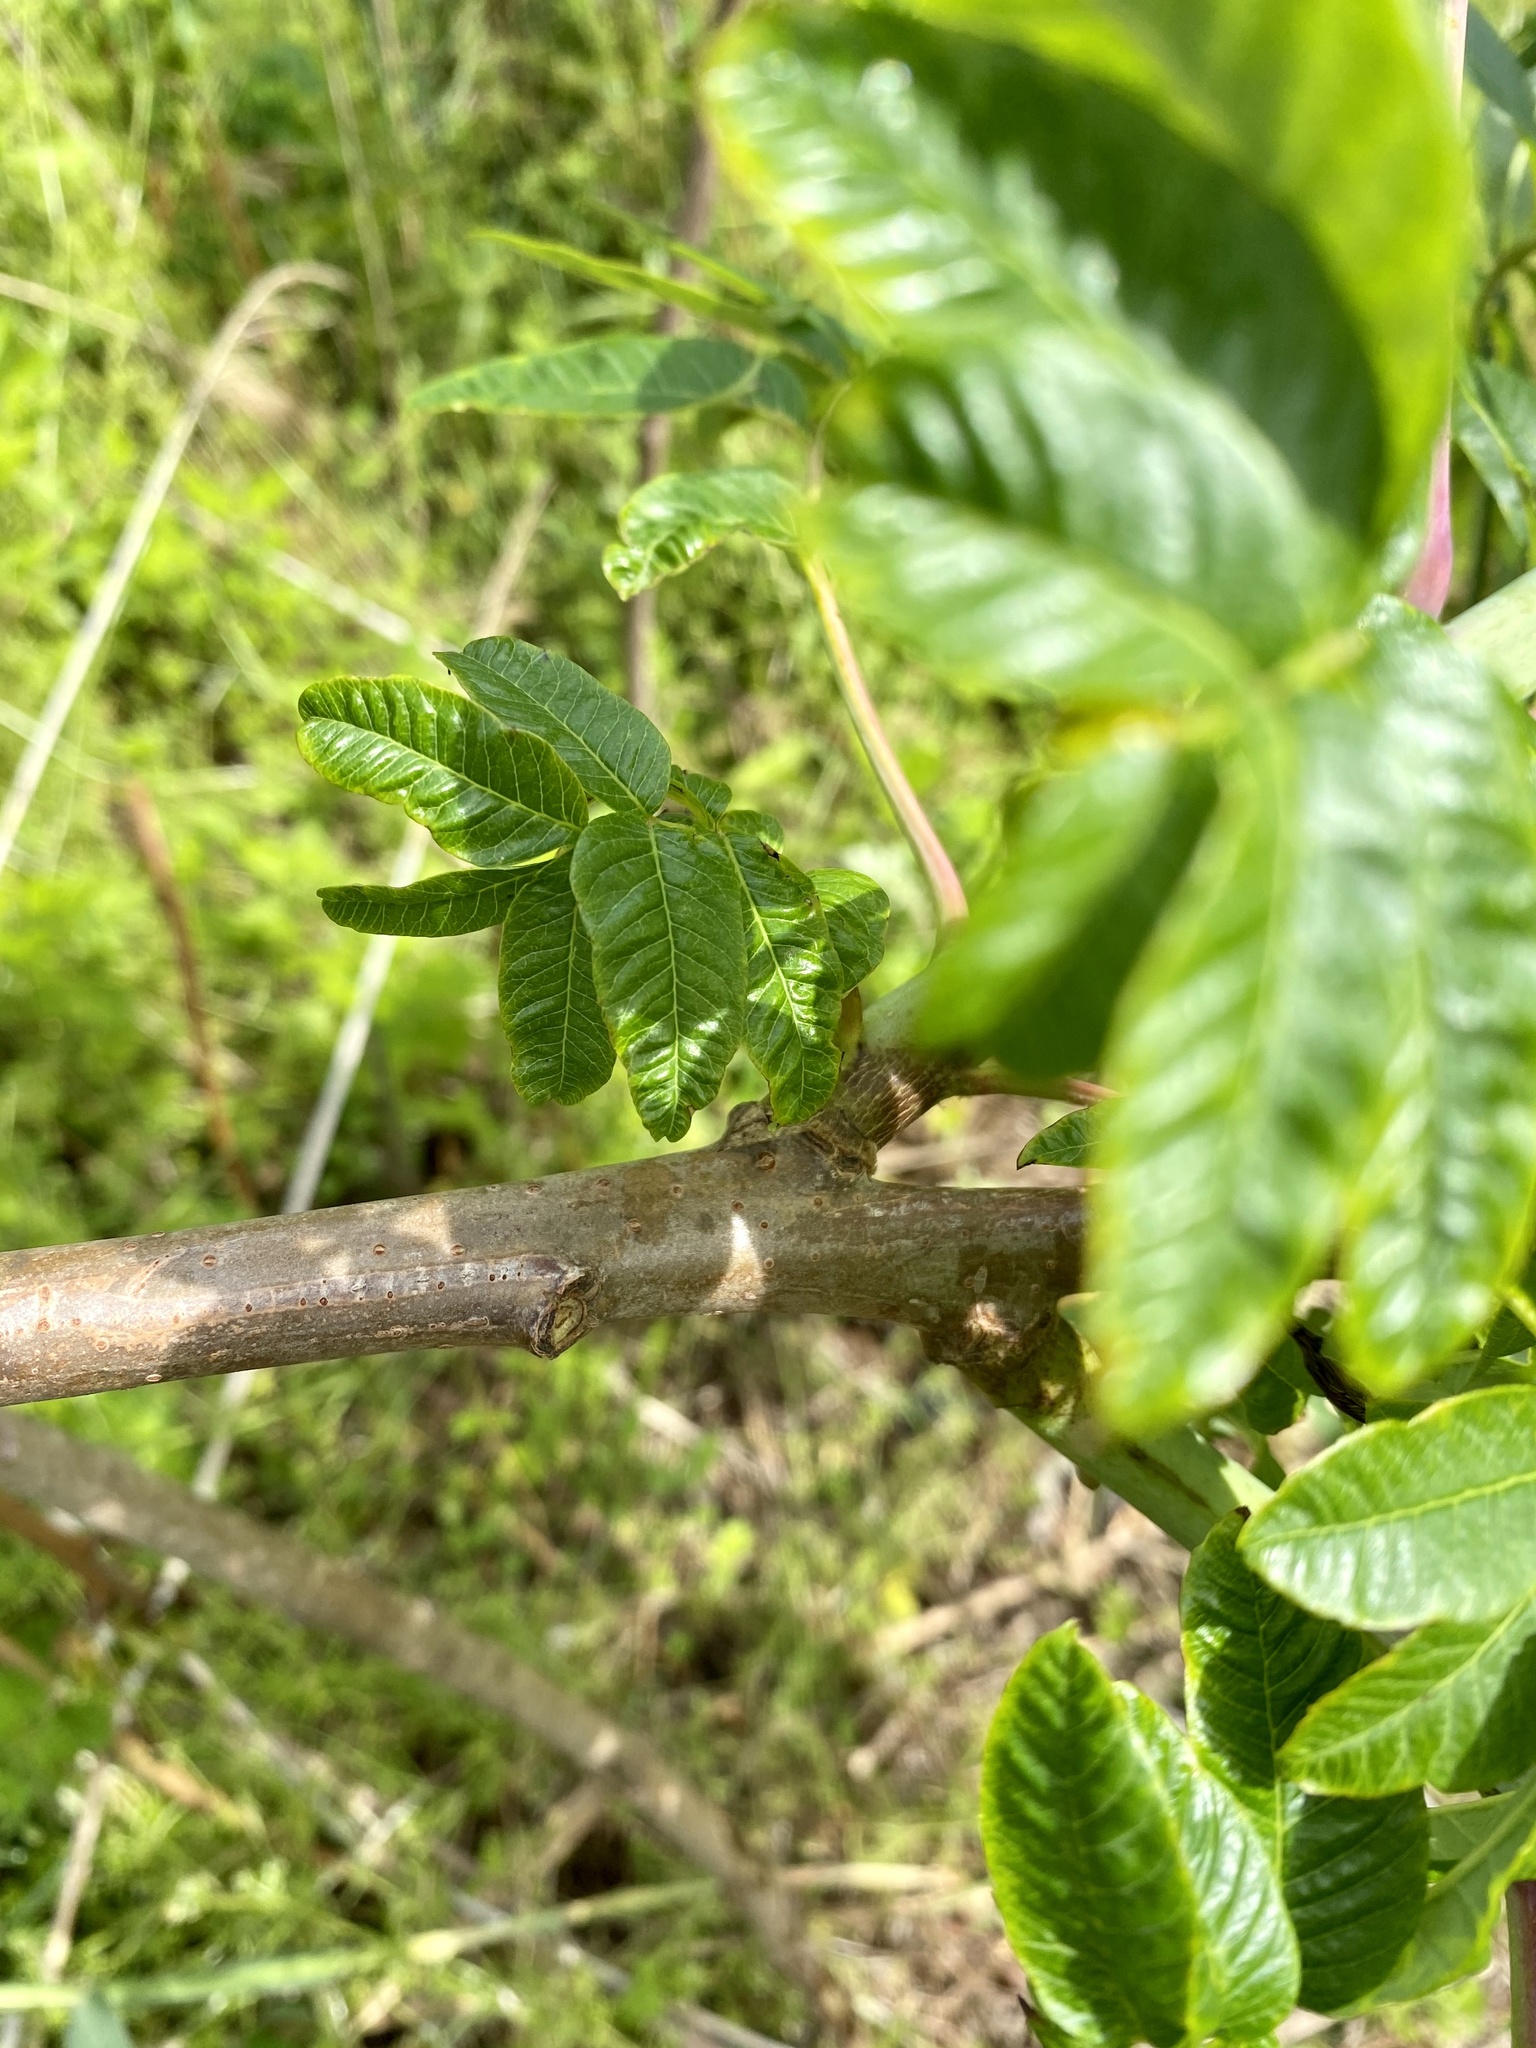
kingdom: Plantae
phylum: Tracheophyta
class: Magnoliopsida
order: Sapindales
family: Anacardiaceae
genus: Rhus
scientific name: Rhus glabra
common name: Scarlet sumac
